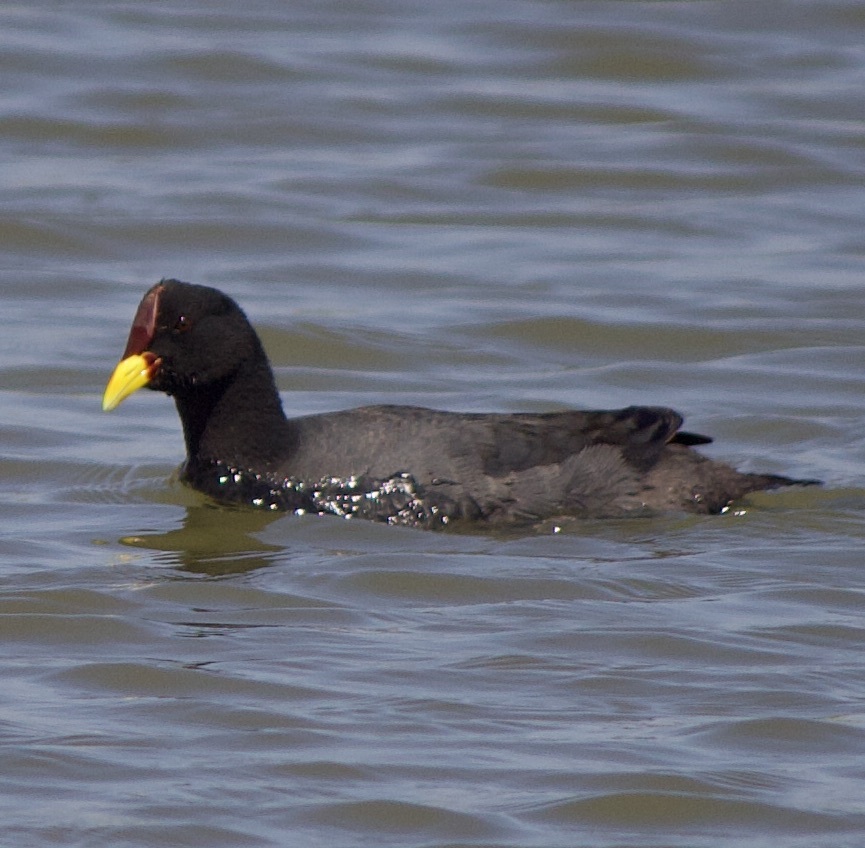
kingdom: Animalia
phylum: Chordata
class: Aves
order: Gruiformes
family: Rallidae
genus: Fulica
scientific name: Fulica rufifrons
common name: Red-fronted coot
